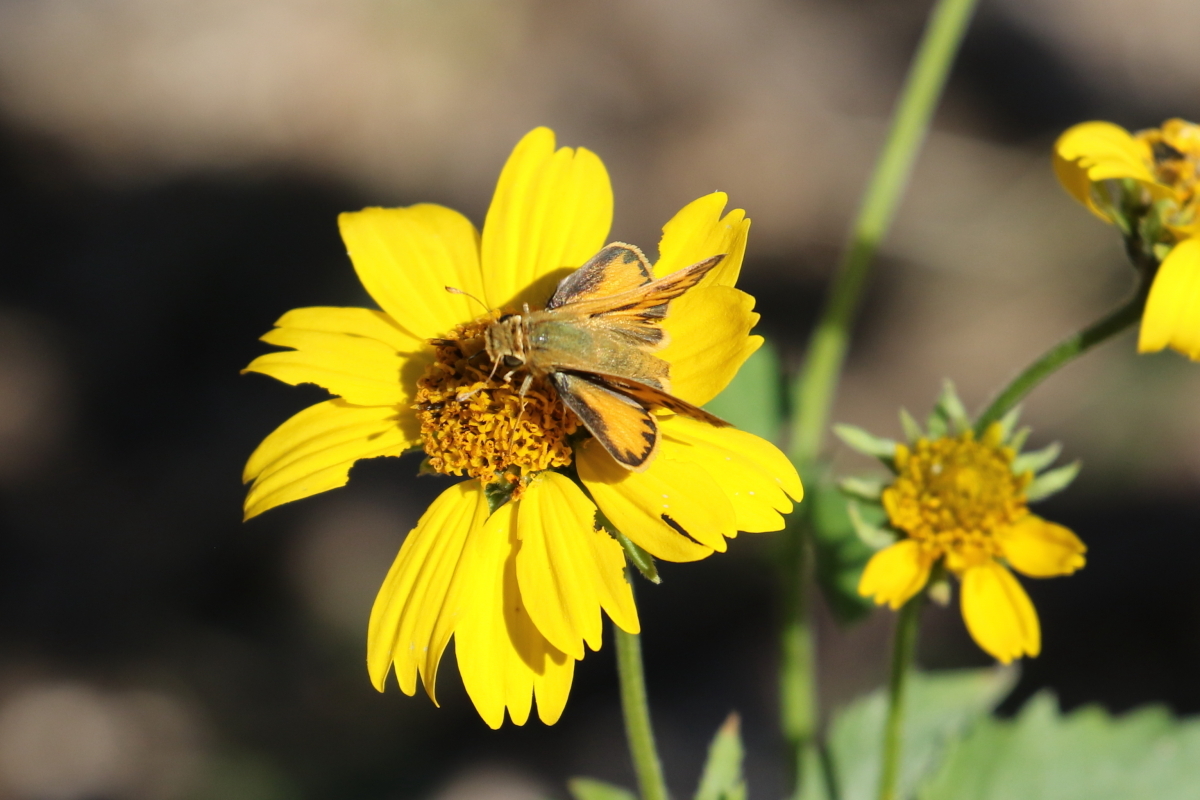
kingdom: Animalia
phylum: Arthropoda
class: Insecta
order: Lepidoptera
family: Hesperiidae
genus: Hylephila
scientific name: Hylephila phyleus
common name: Fiery skipper
